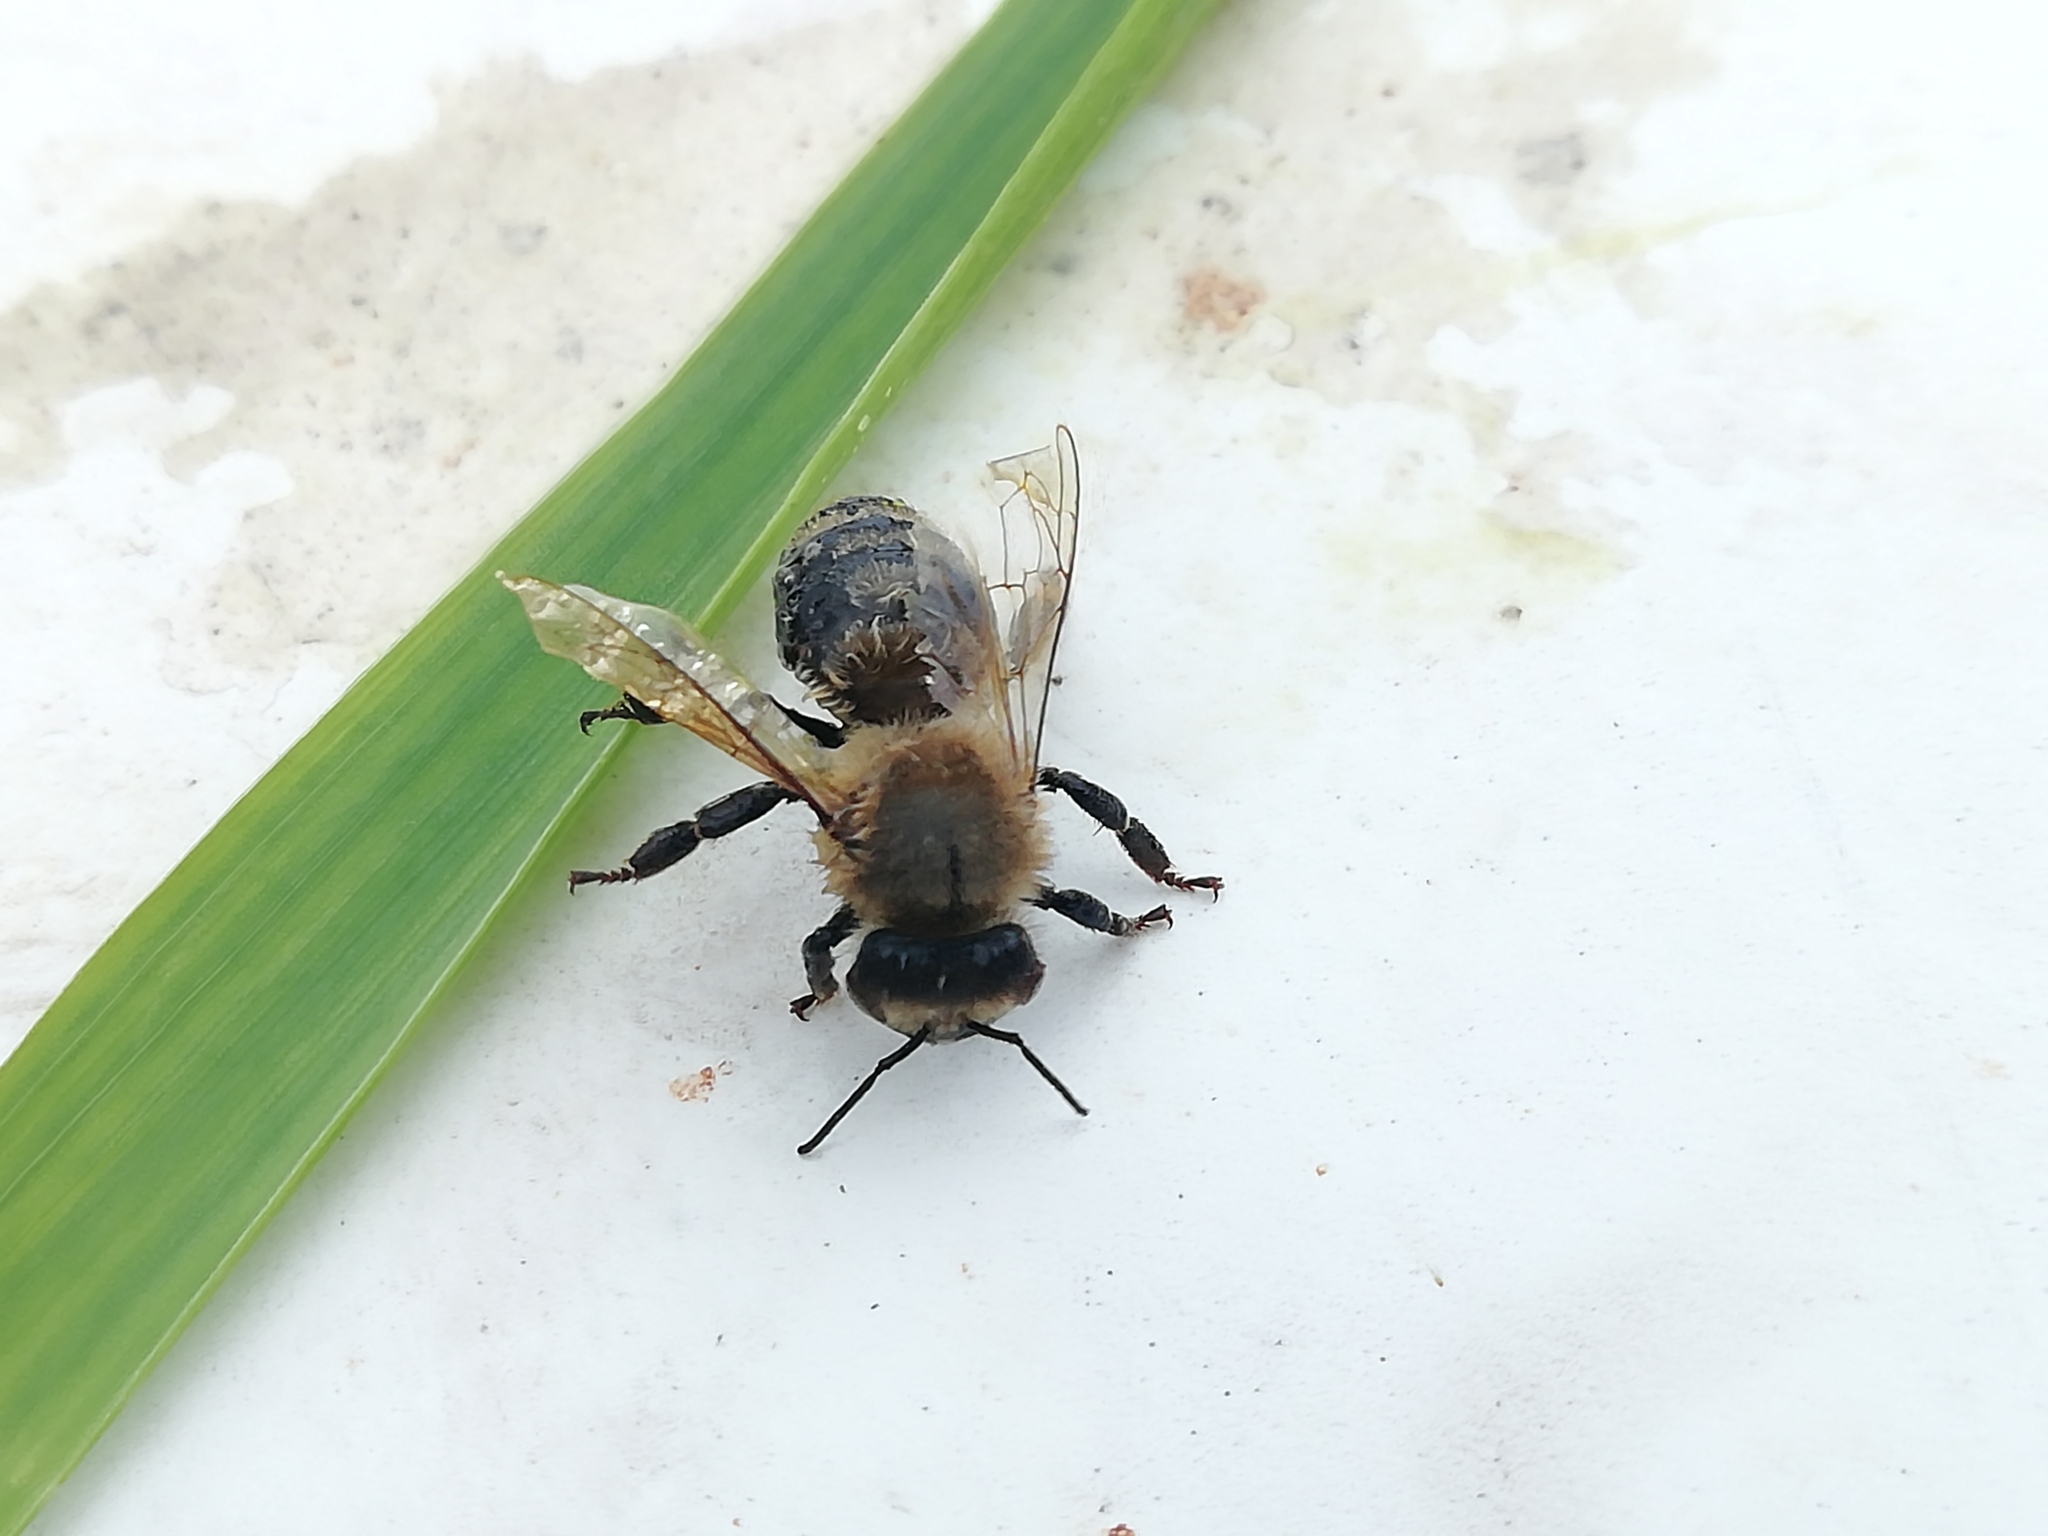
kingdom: Animalia
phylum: Arthropoda
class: Insecta
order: Hymenoptera
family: Apidae
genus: Apis
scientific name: Apis mellifera
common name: Honey bee
